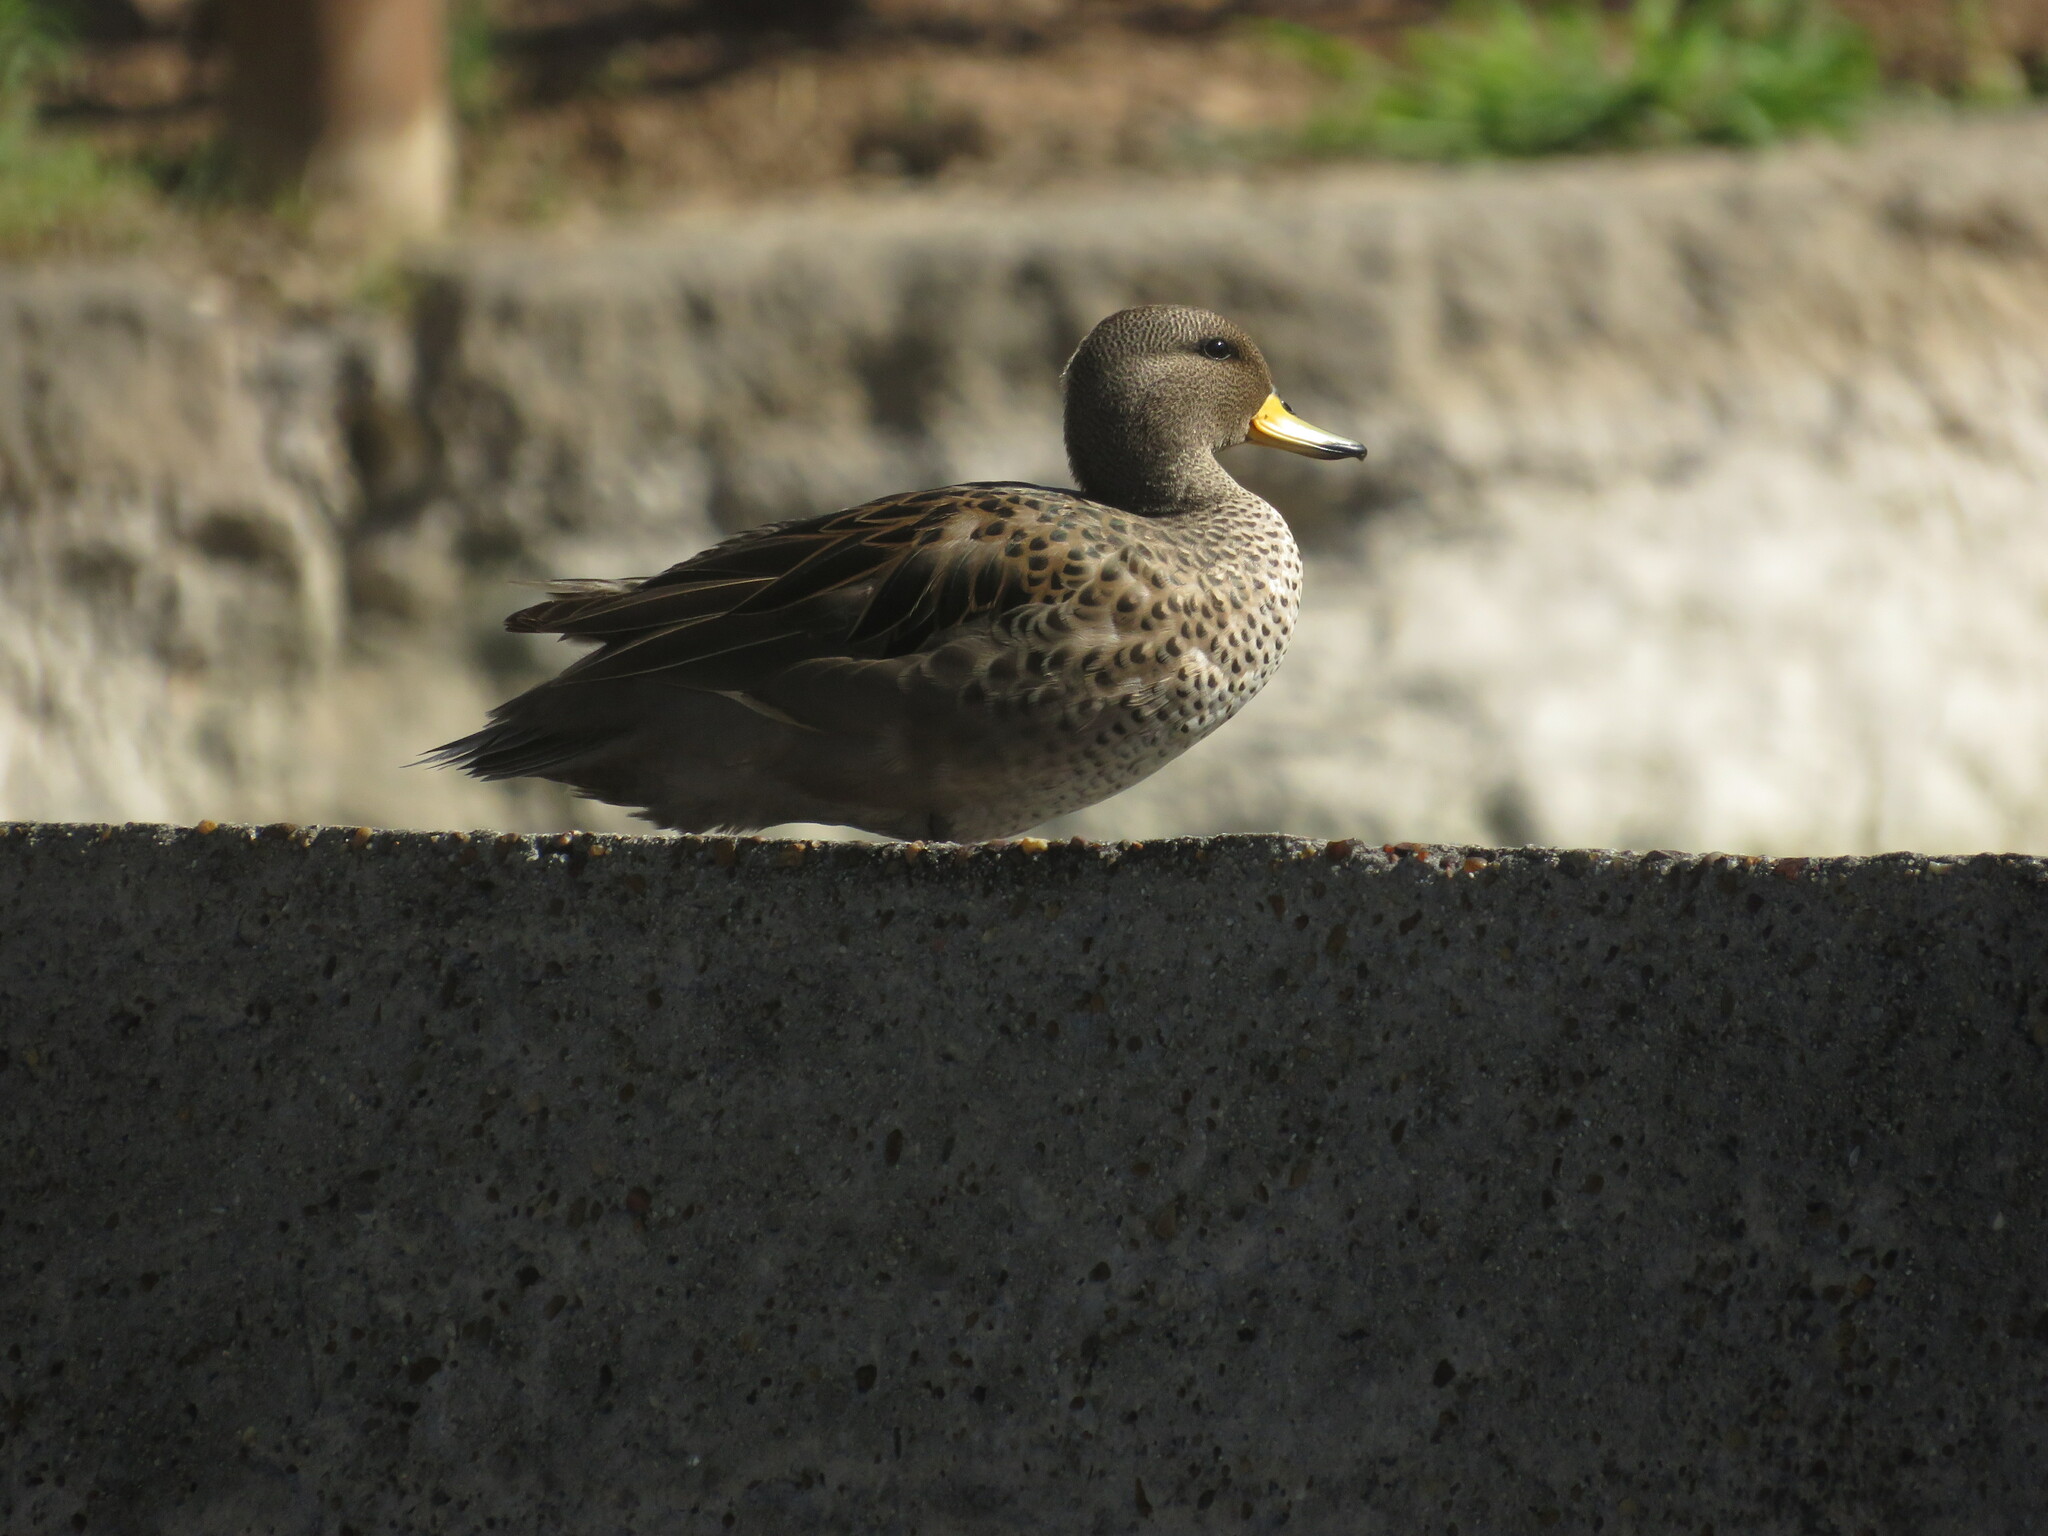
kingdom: Animalia
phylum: Chordata
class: Aves
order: Anseriformes
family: Anatidae
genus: Anas
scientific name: Anas flavirostris
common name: Yellow-billed teal
